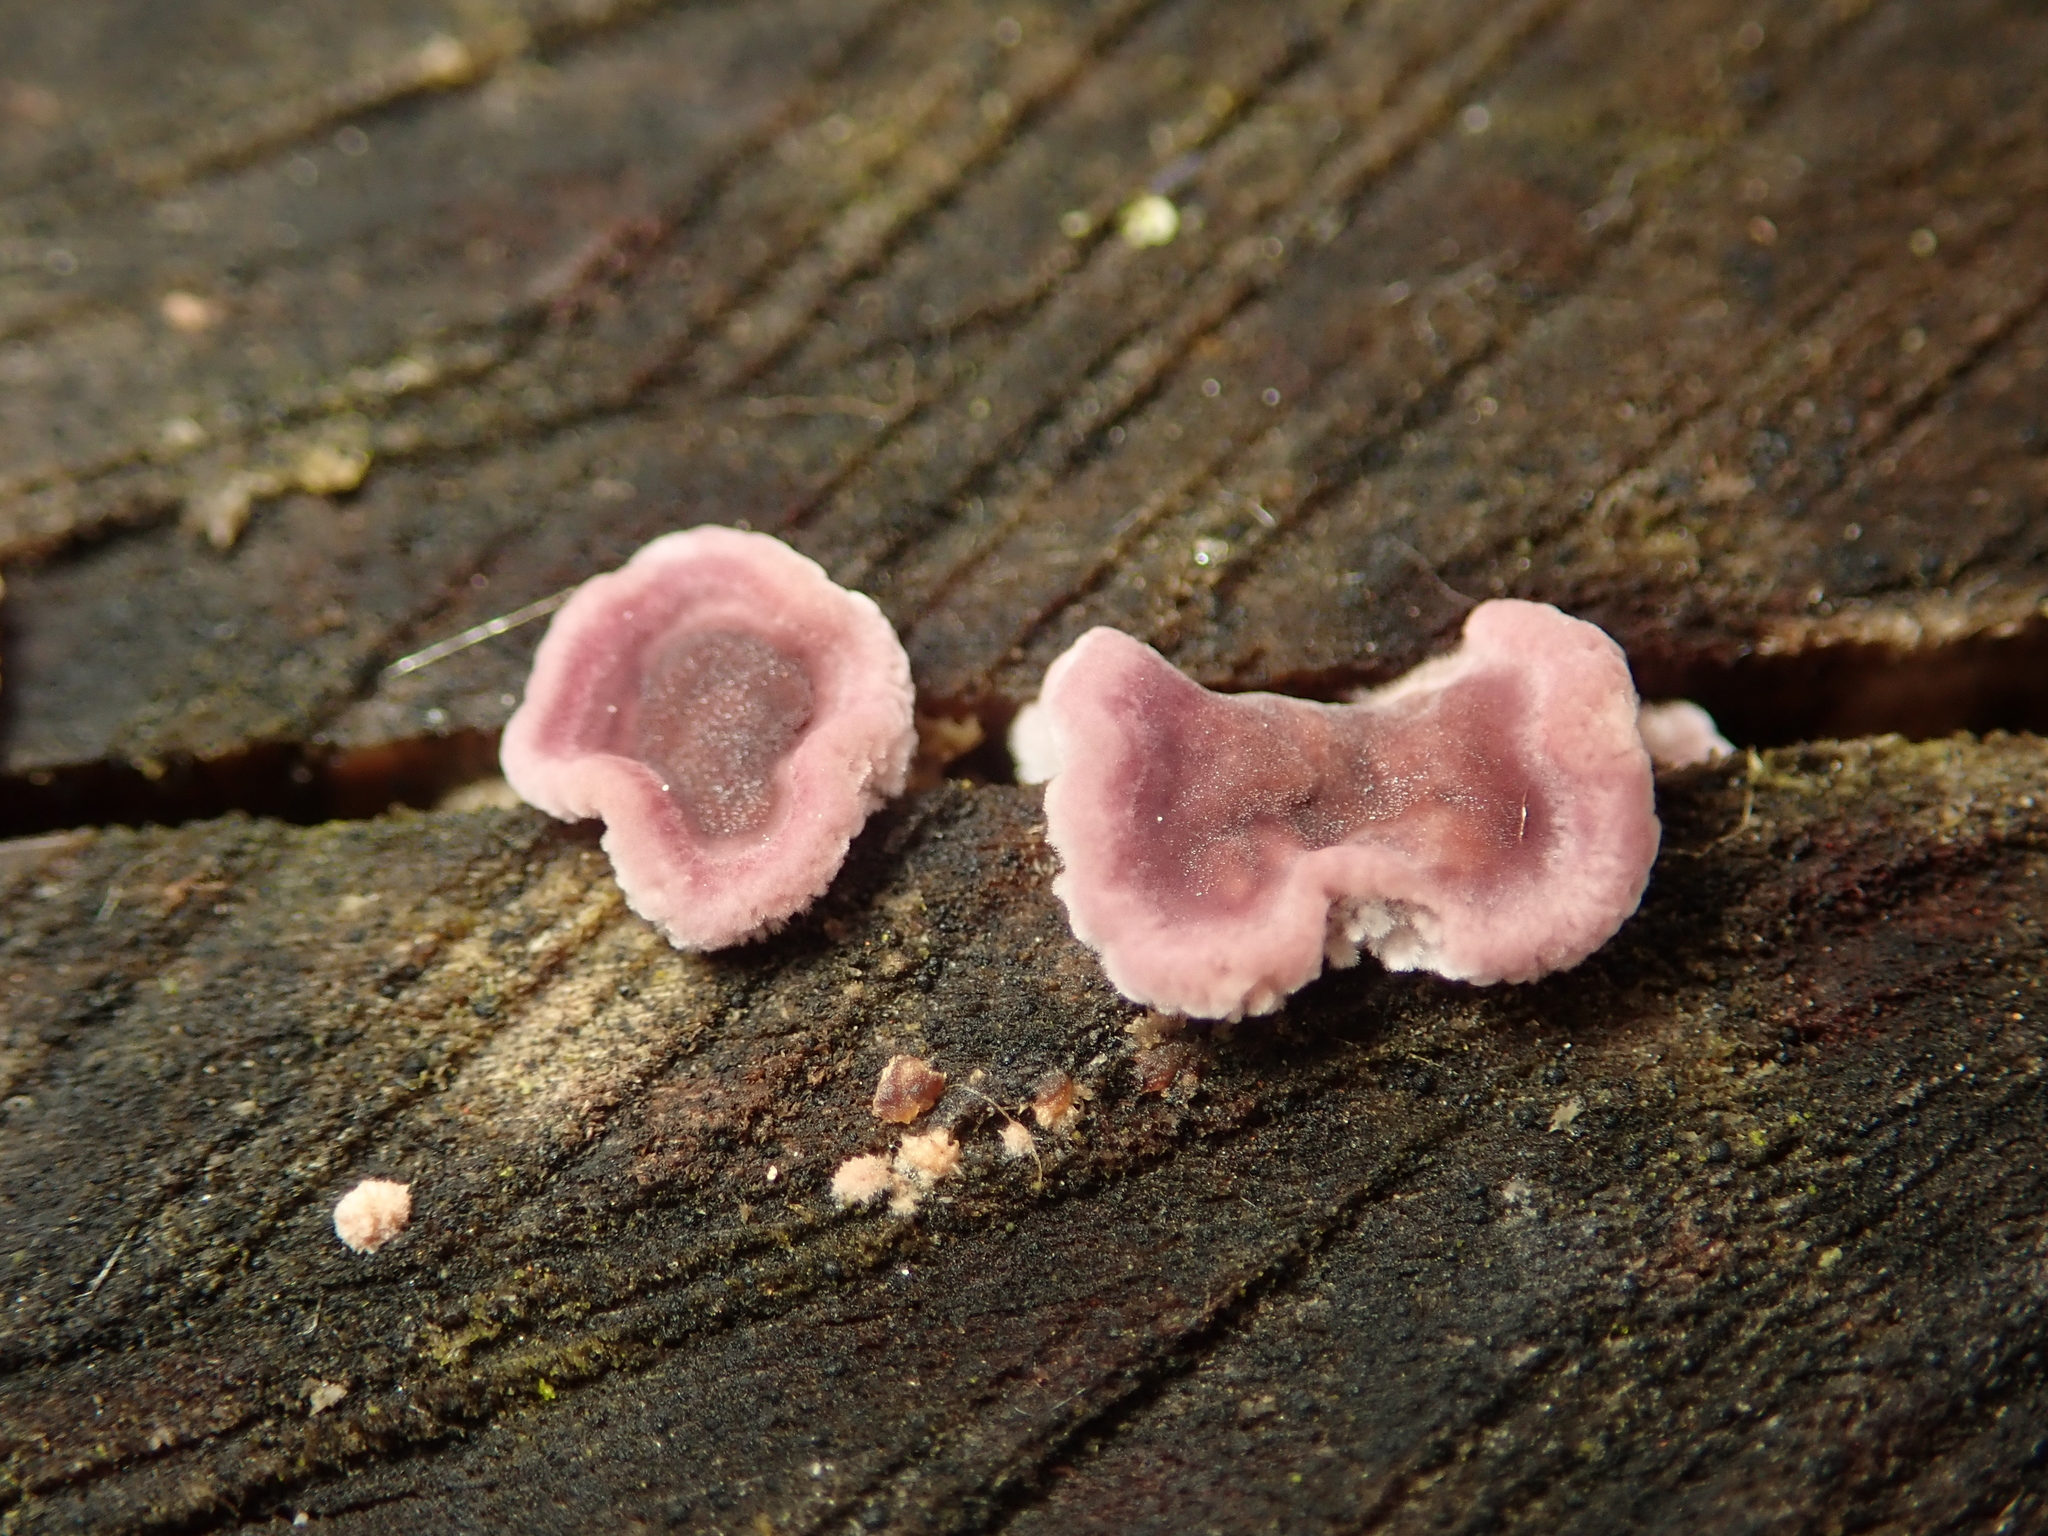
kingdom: Fungi
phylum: Basidiomycota
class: Agaricomycetes
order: Agaricales
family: Cyphellaceae
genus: Chondrostereum
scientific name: Chondrostereum purpureum
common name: Silver leaf disease
